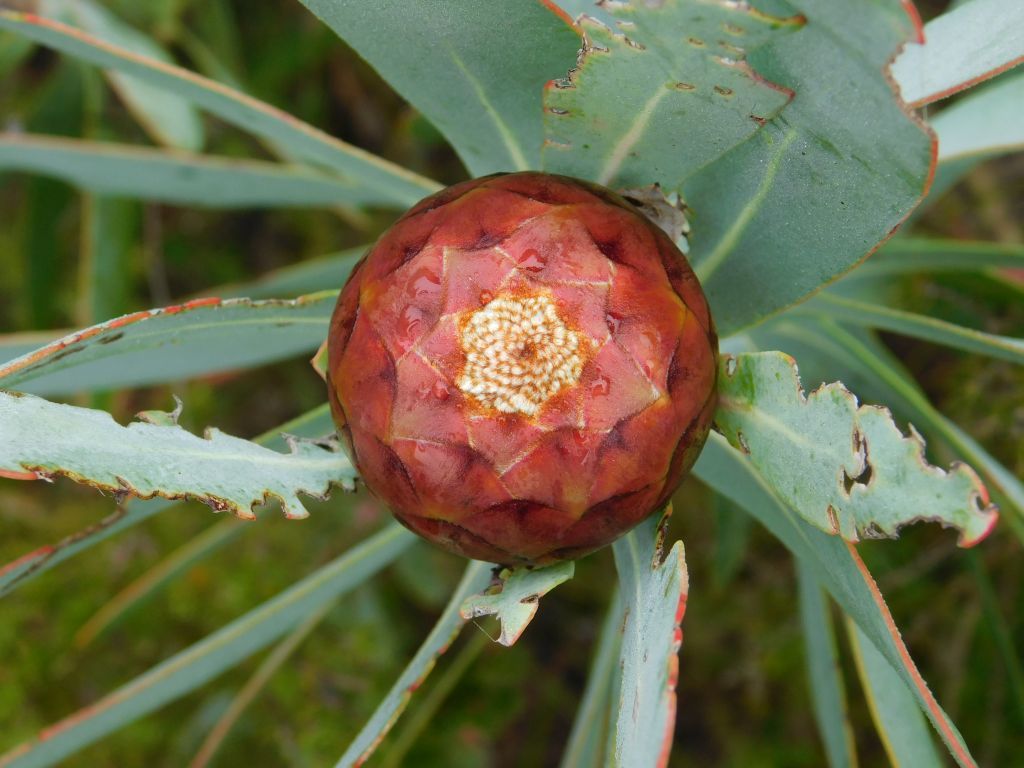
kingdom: Plantae
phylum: Tracheophyta
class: Magnoliopsida
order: Proteales
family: Proteaceae
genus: Protea
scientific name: Protea nitida
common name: Tree protea
